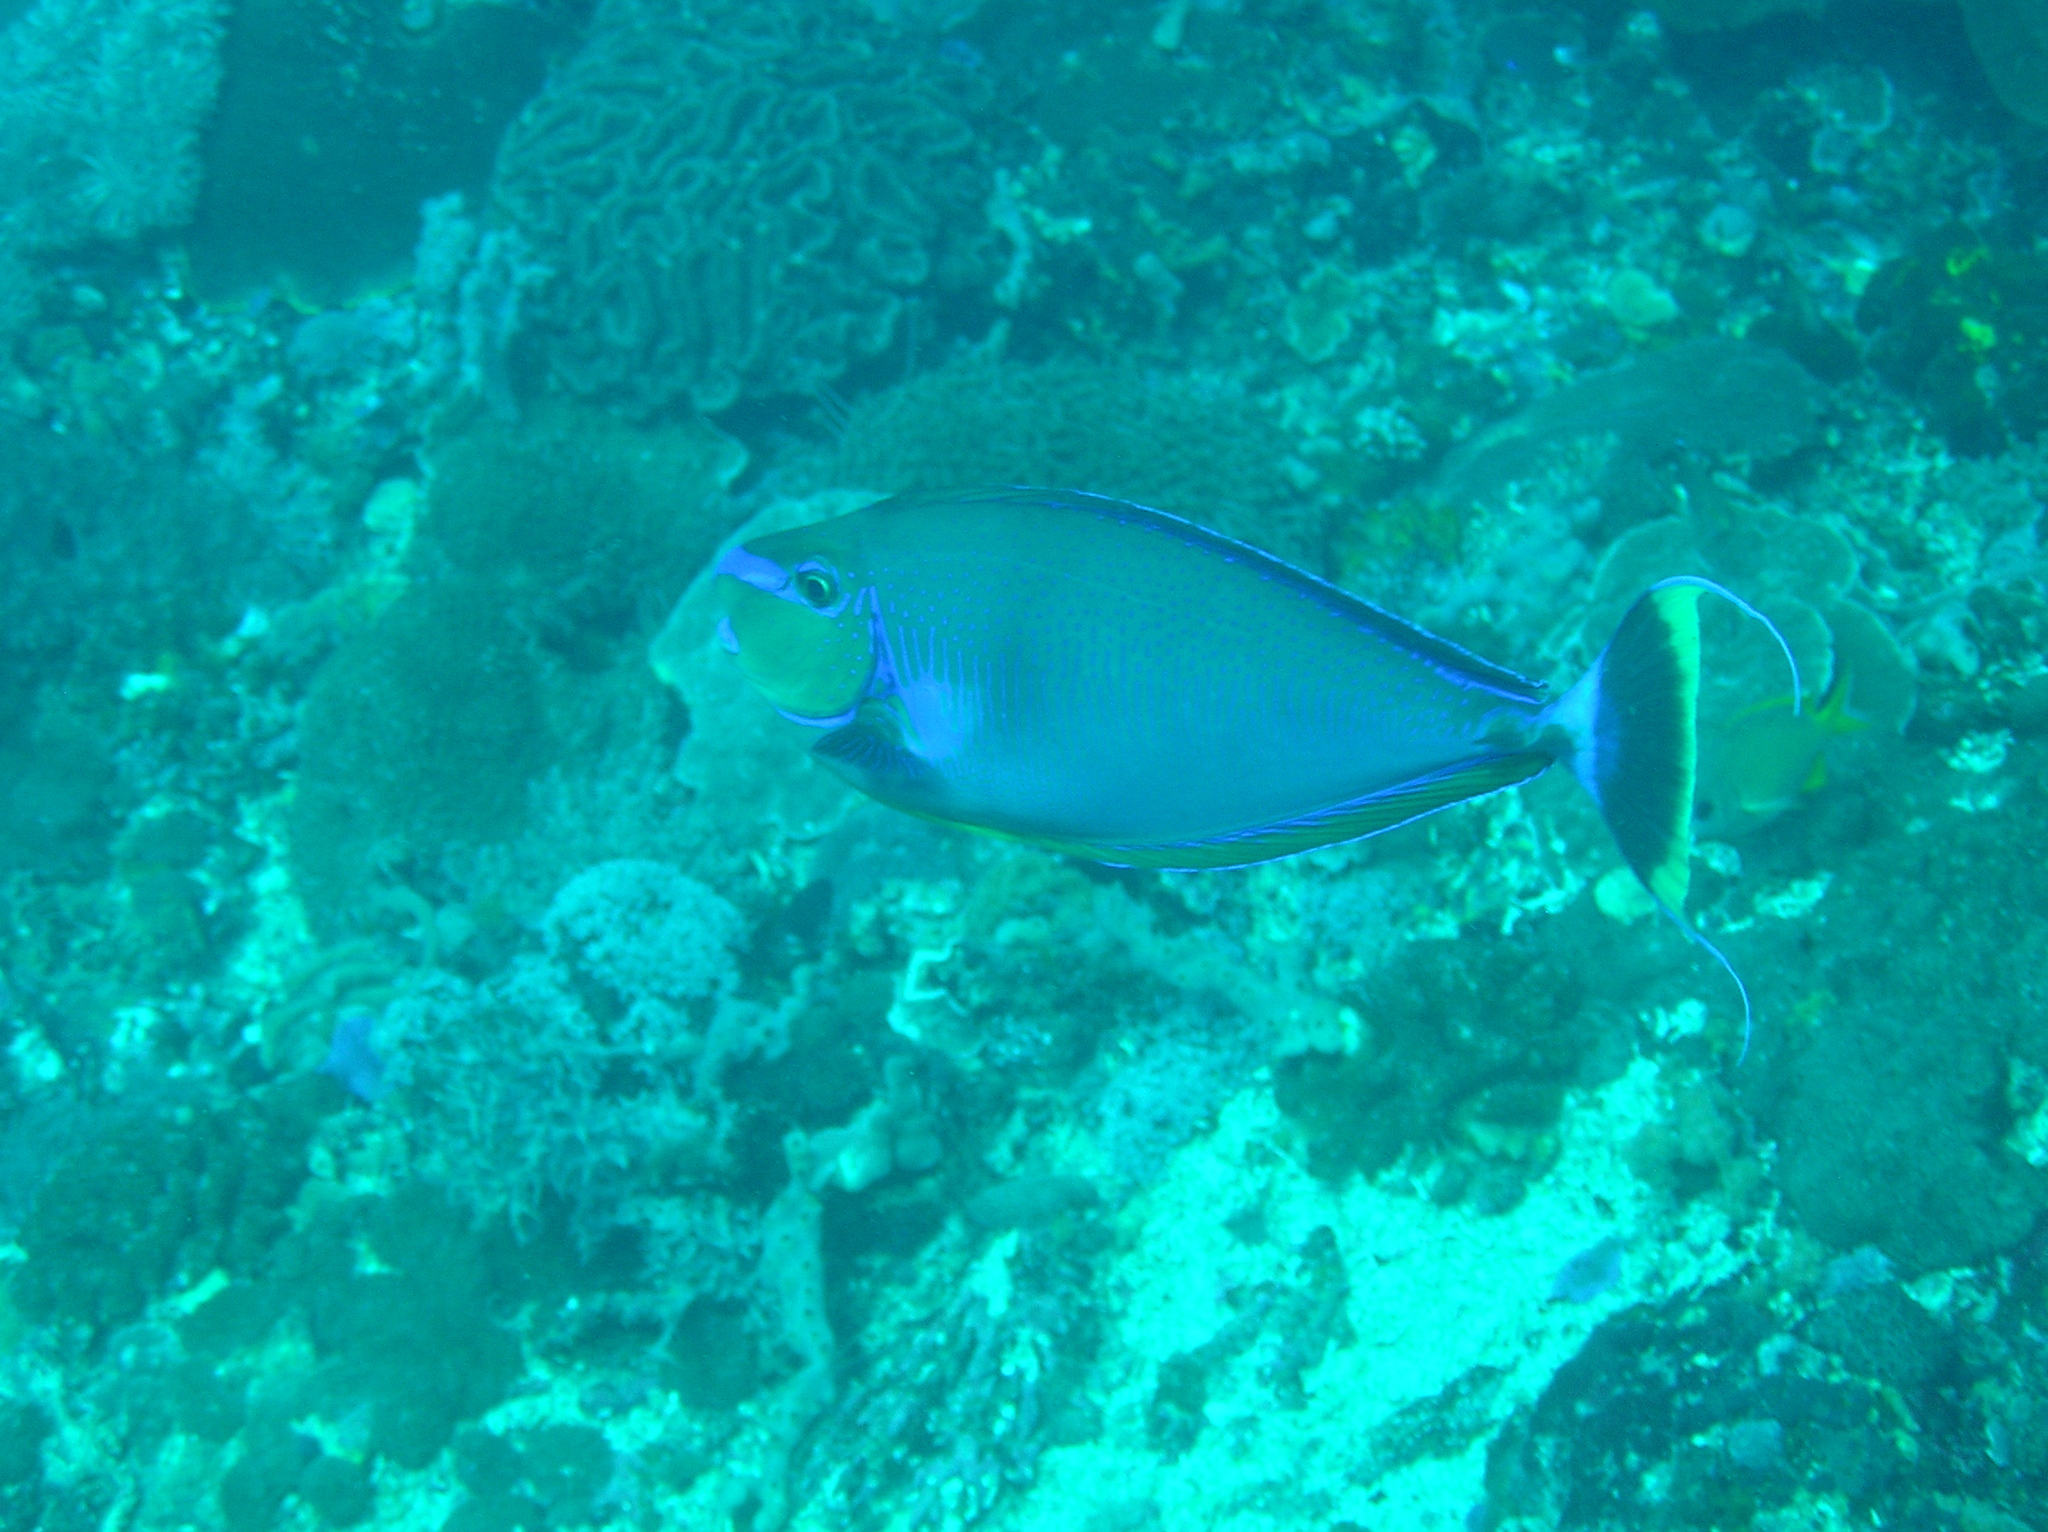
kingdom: Animalia
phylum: Chordata
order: Perciformes
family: Acanthuridae
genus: Naso
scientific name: Naso vlamingii
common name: Big-nose unicorn
